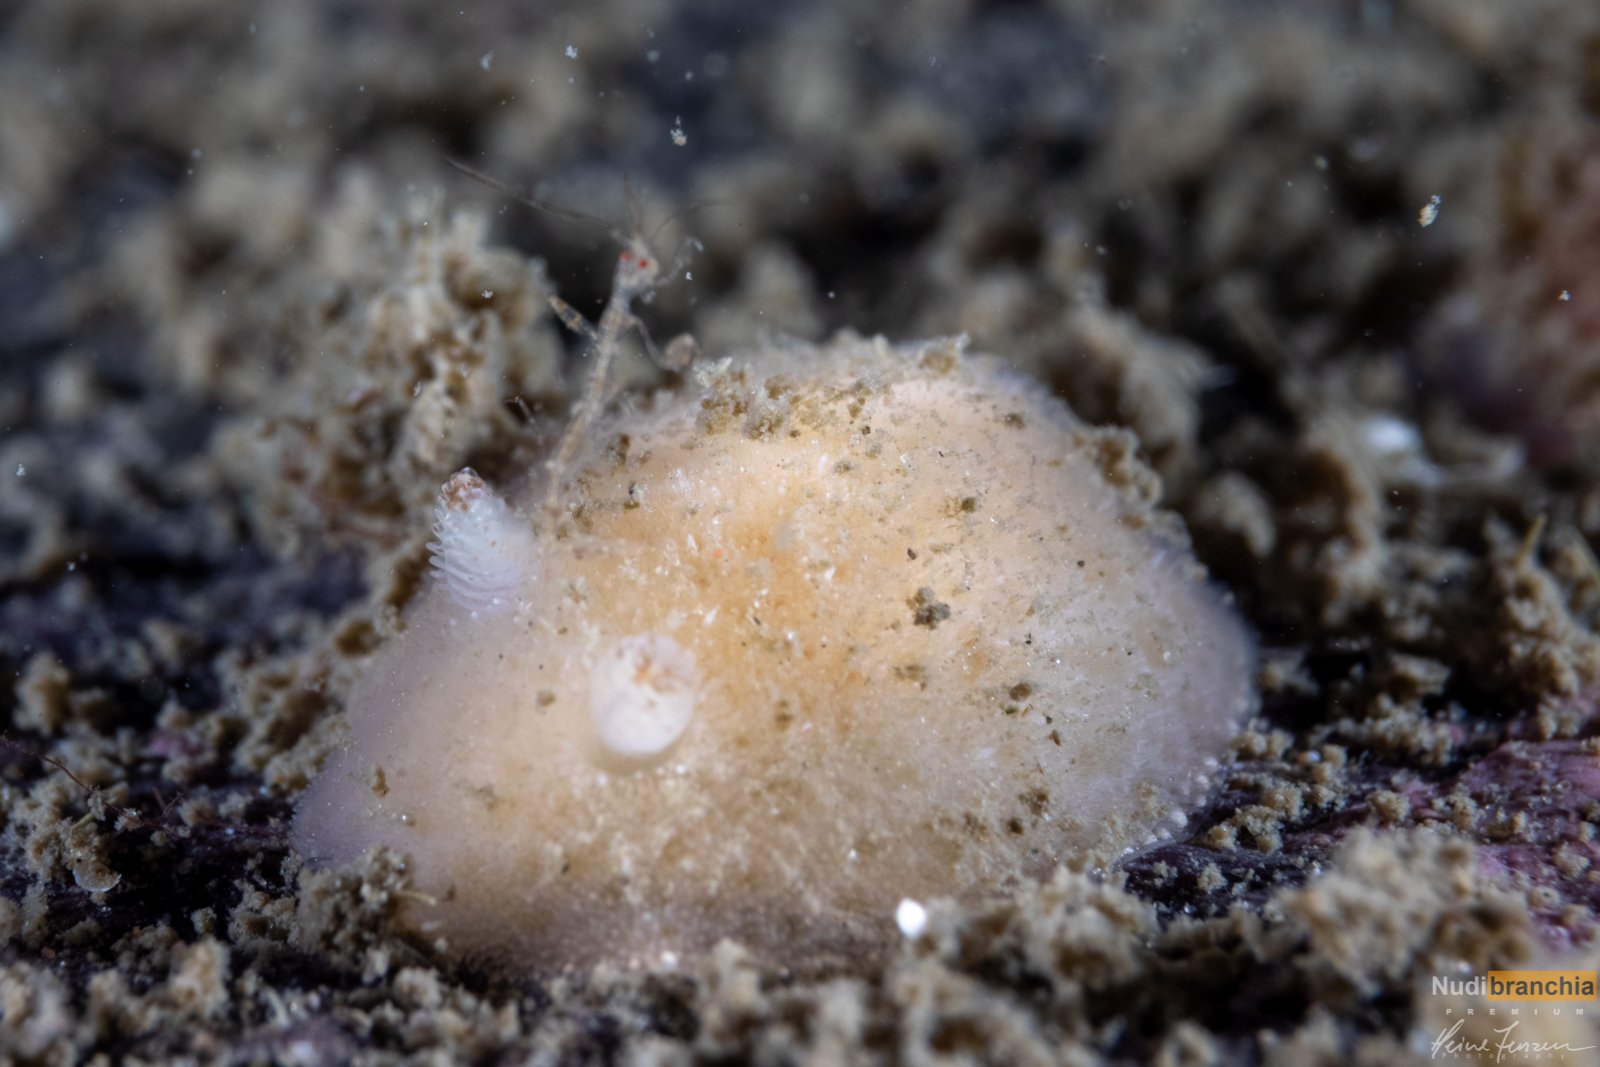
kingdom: Animalia
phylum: Mollusca
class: Gastropoda
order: Nudibranchia
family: Discodorididae
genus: Jorunna
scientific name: Jorunna tomentosa
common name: Grey sea slug
